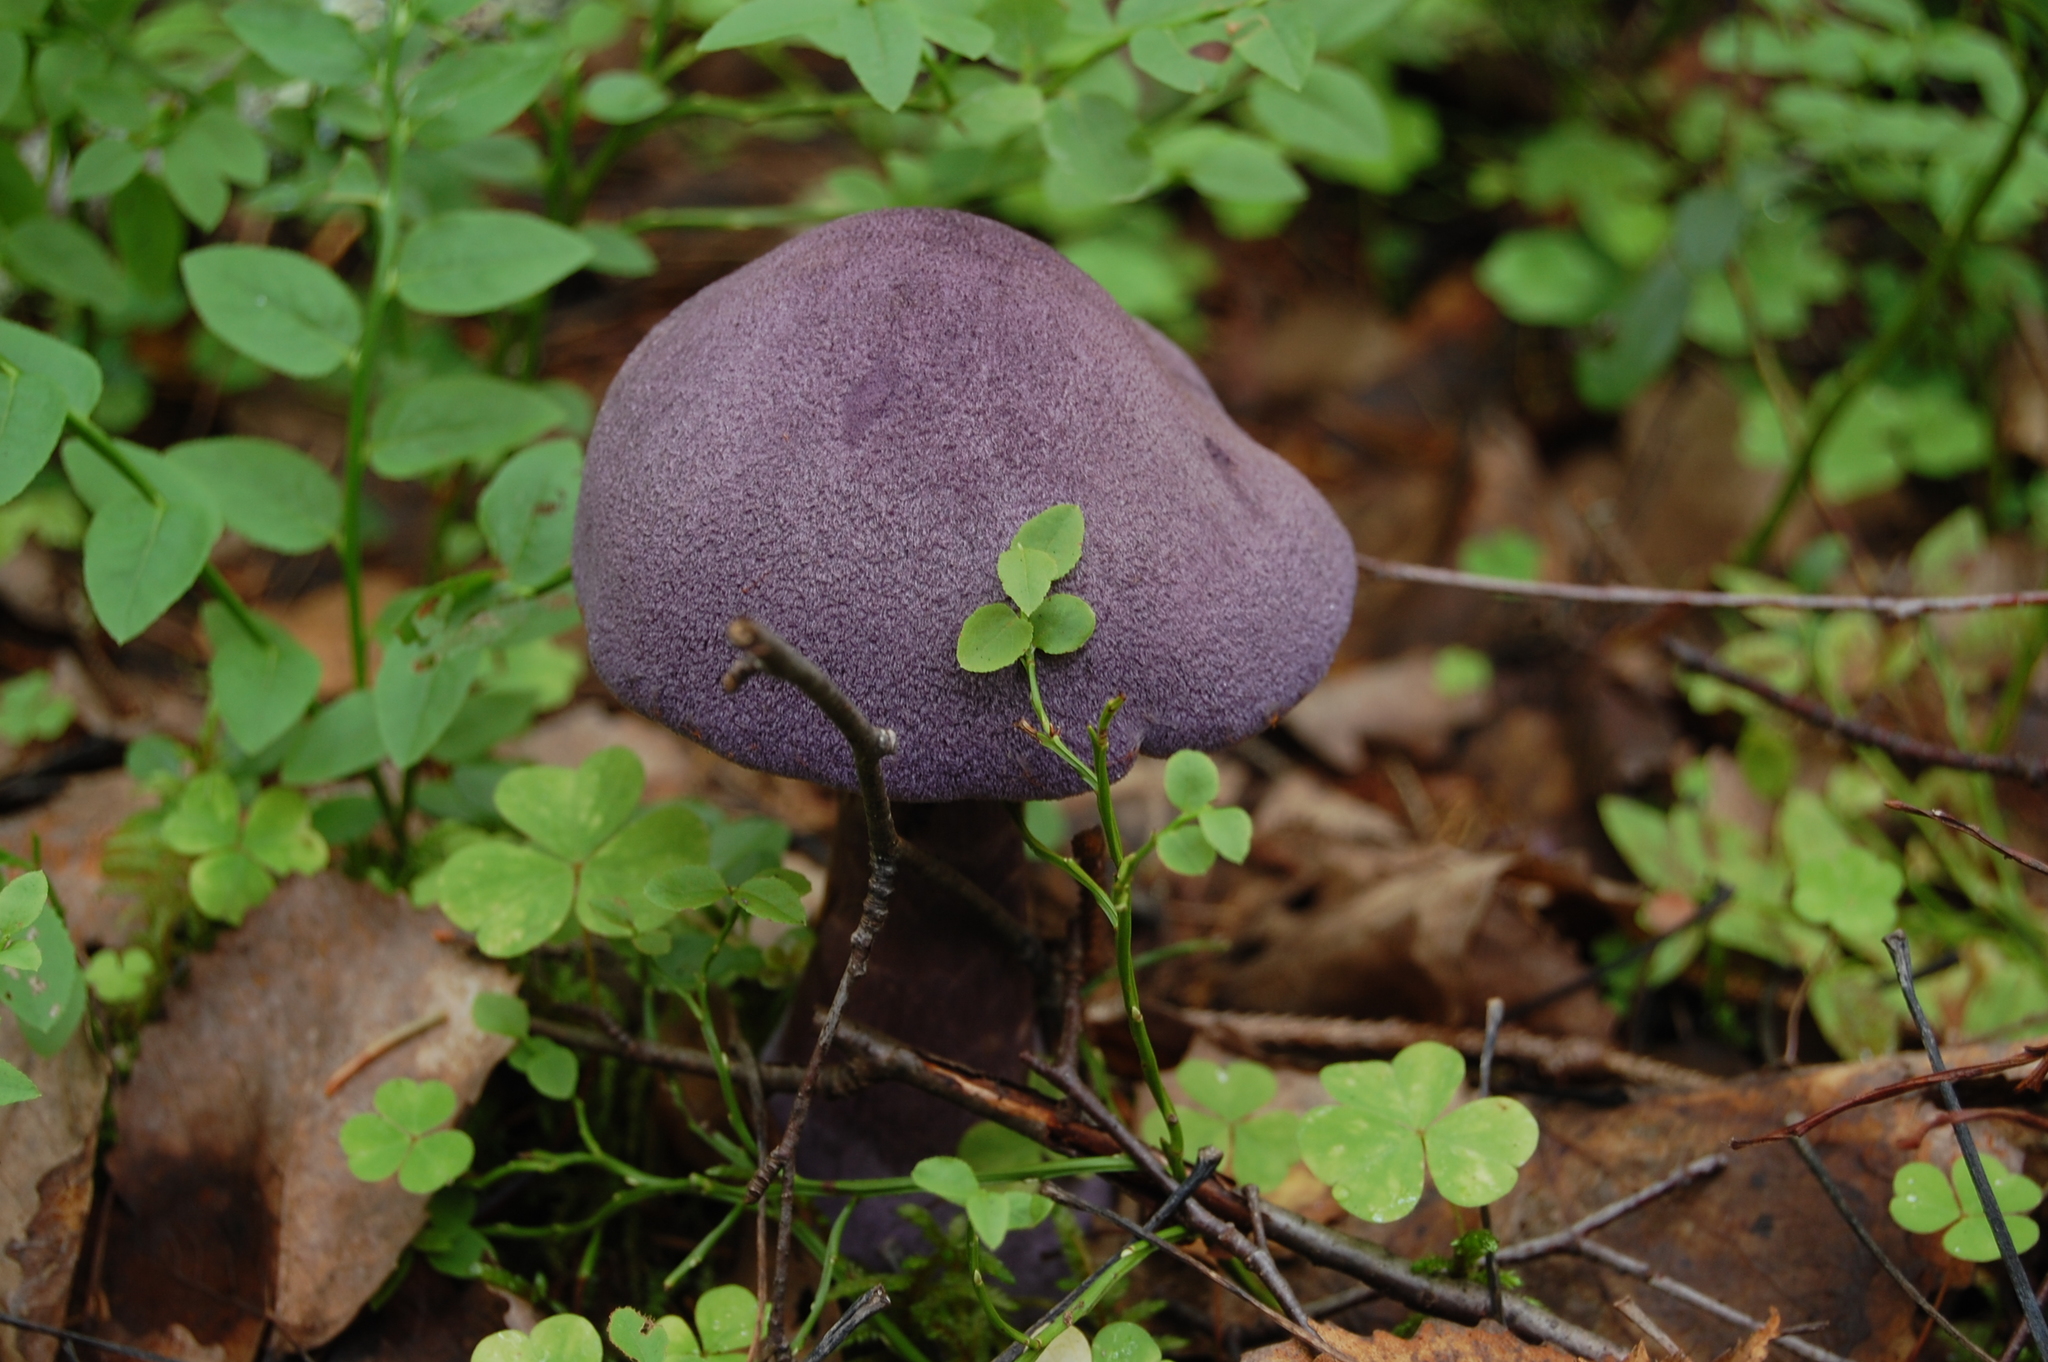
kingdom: Fungi
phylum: Basidiomycota
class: Agaricomycetes
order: Agaricales
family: Cortinariaceae
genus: Cortinarius
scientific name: Cortinarius violaceus
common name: Violet webcap
